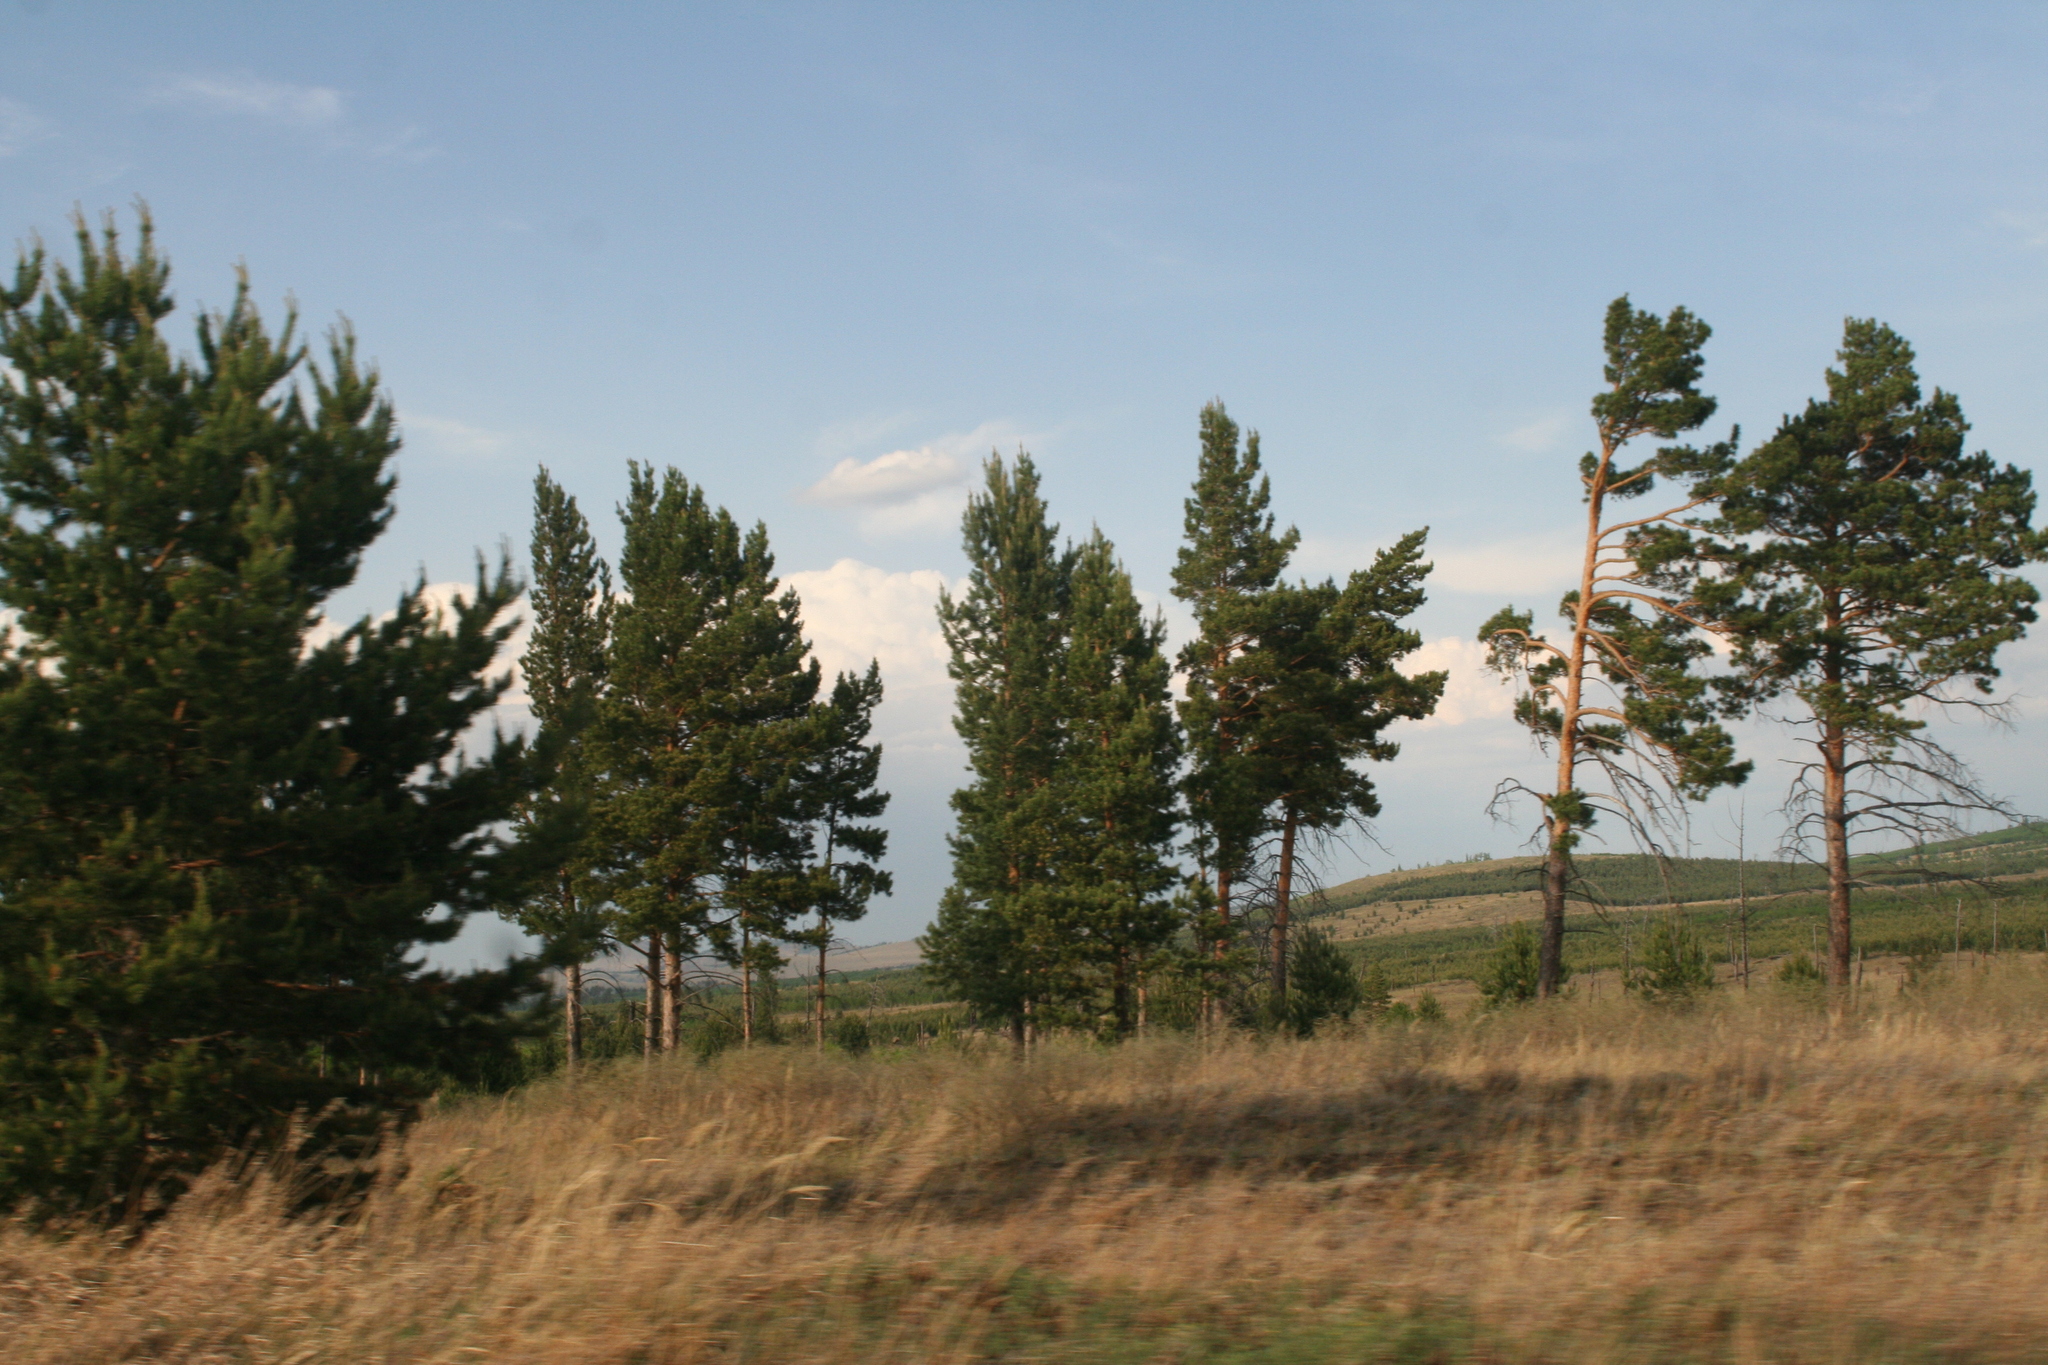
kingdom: Plantae
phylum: Tracheophyta
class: Pinopsida
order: Pinales
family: Pinaceae
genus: Pinus
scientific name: Pinus sylvestris
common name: Scots pine
